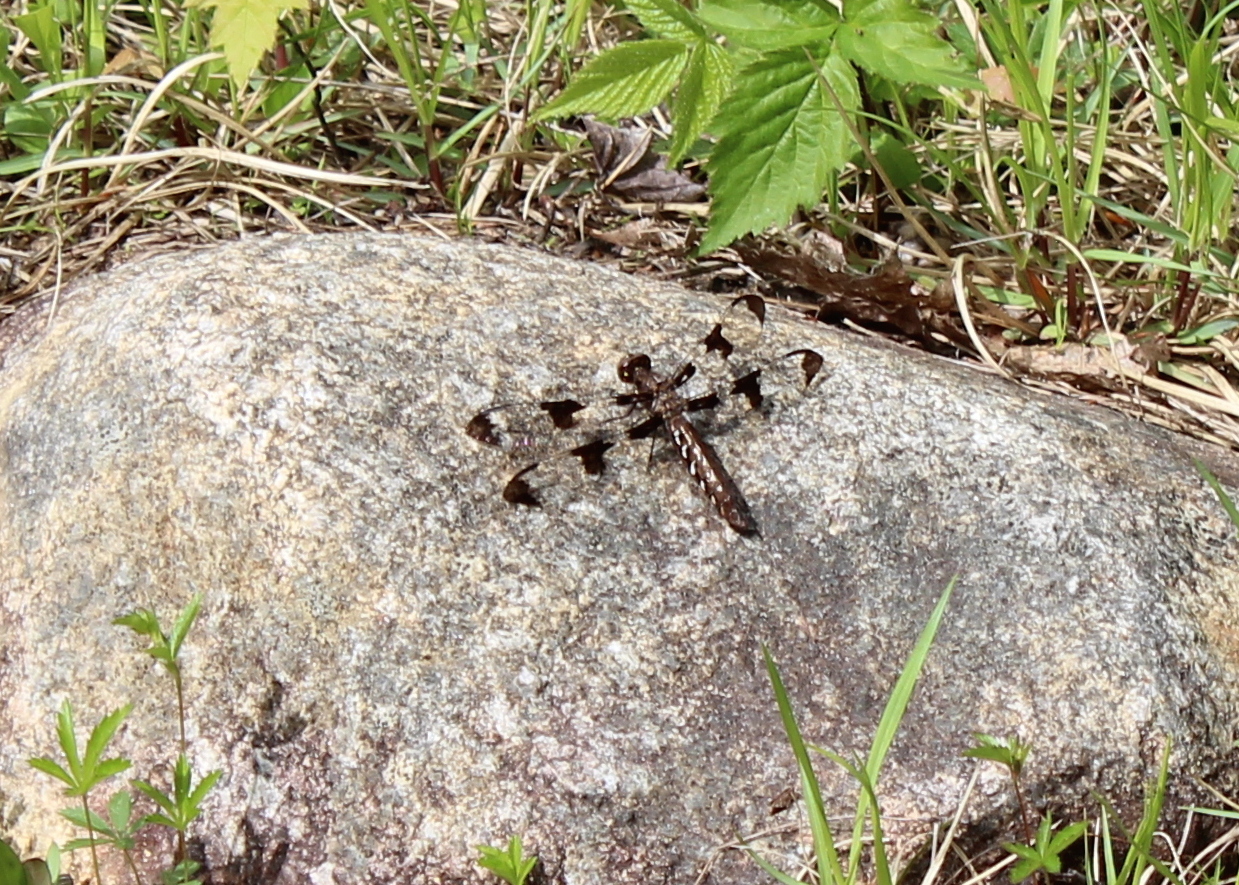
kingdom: Animalia
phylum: Arthropoda
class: Insecta
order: Odonata
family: Libellulidae
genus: Plathemis
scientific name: Plathemis lydia
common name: Common whitetail
